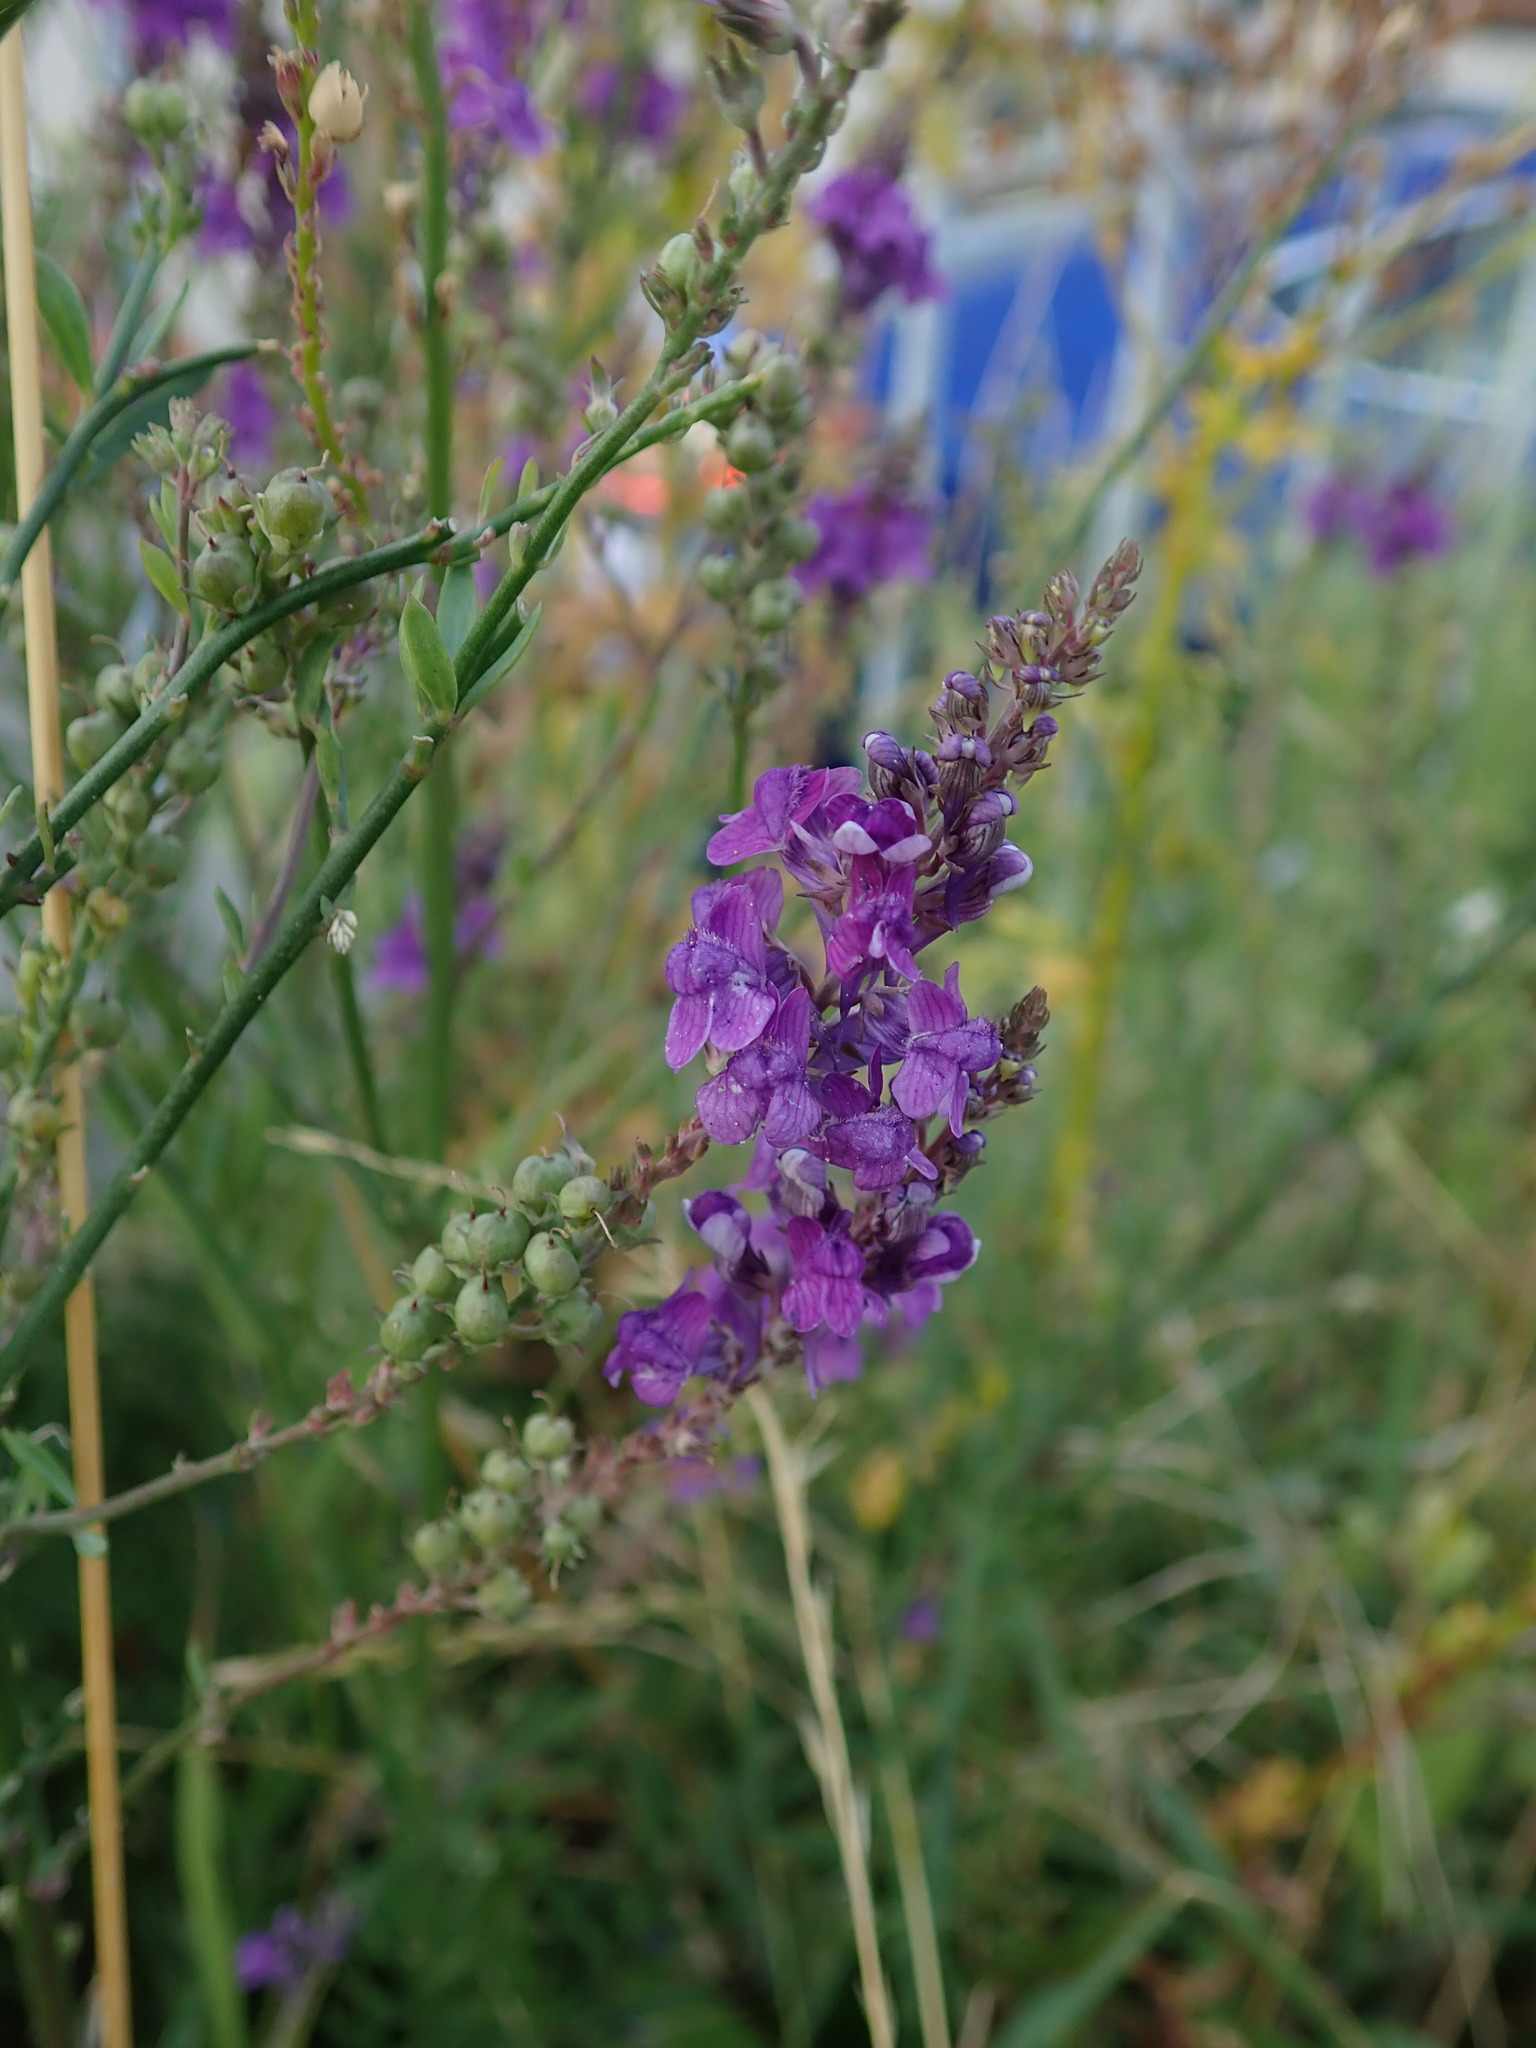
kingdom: Plantae
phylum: Tracheophyta
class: Magnoliopsida
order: Lamiales
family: Plantaginaceae
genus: Linaria
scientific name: Linaria purpurea
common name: Purple toadflax
